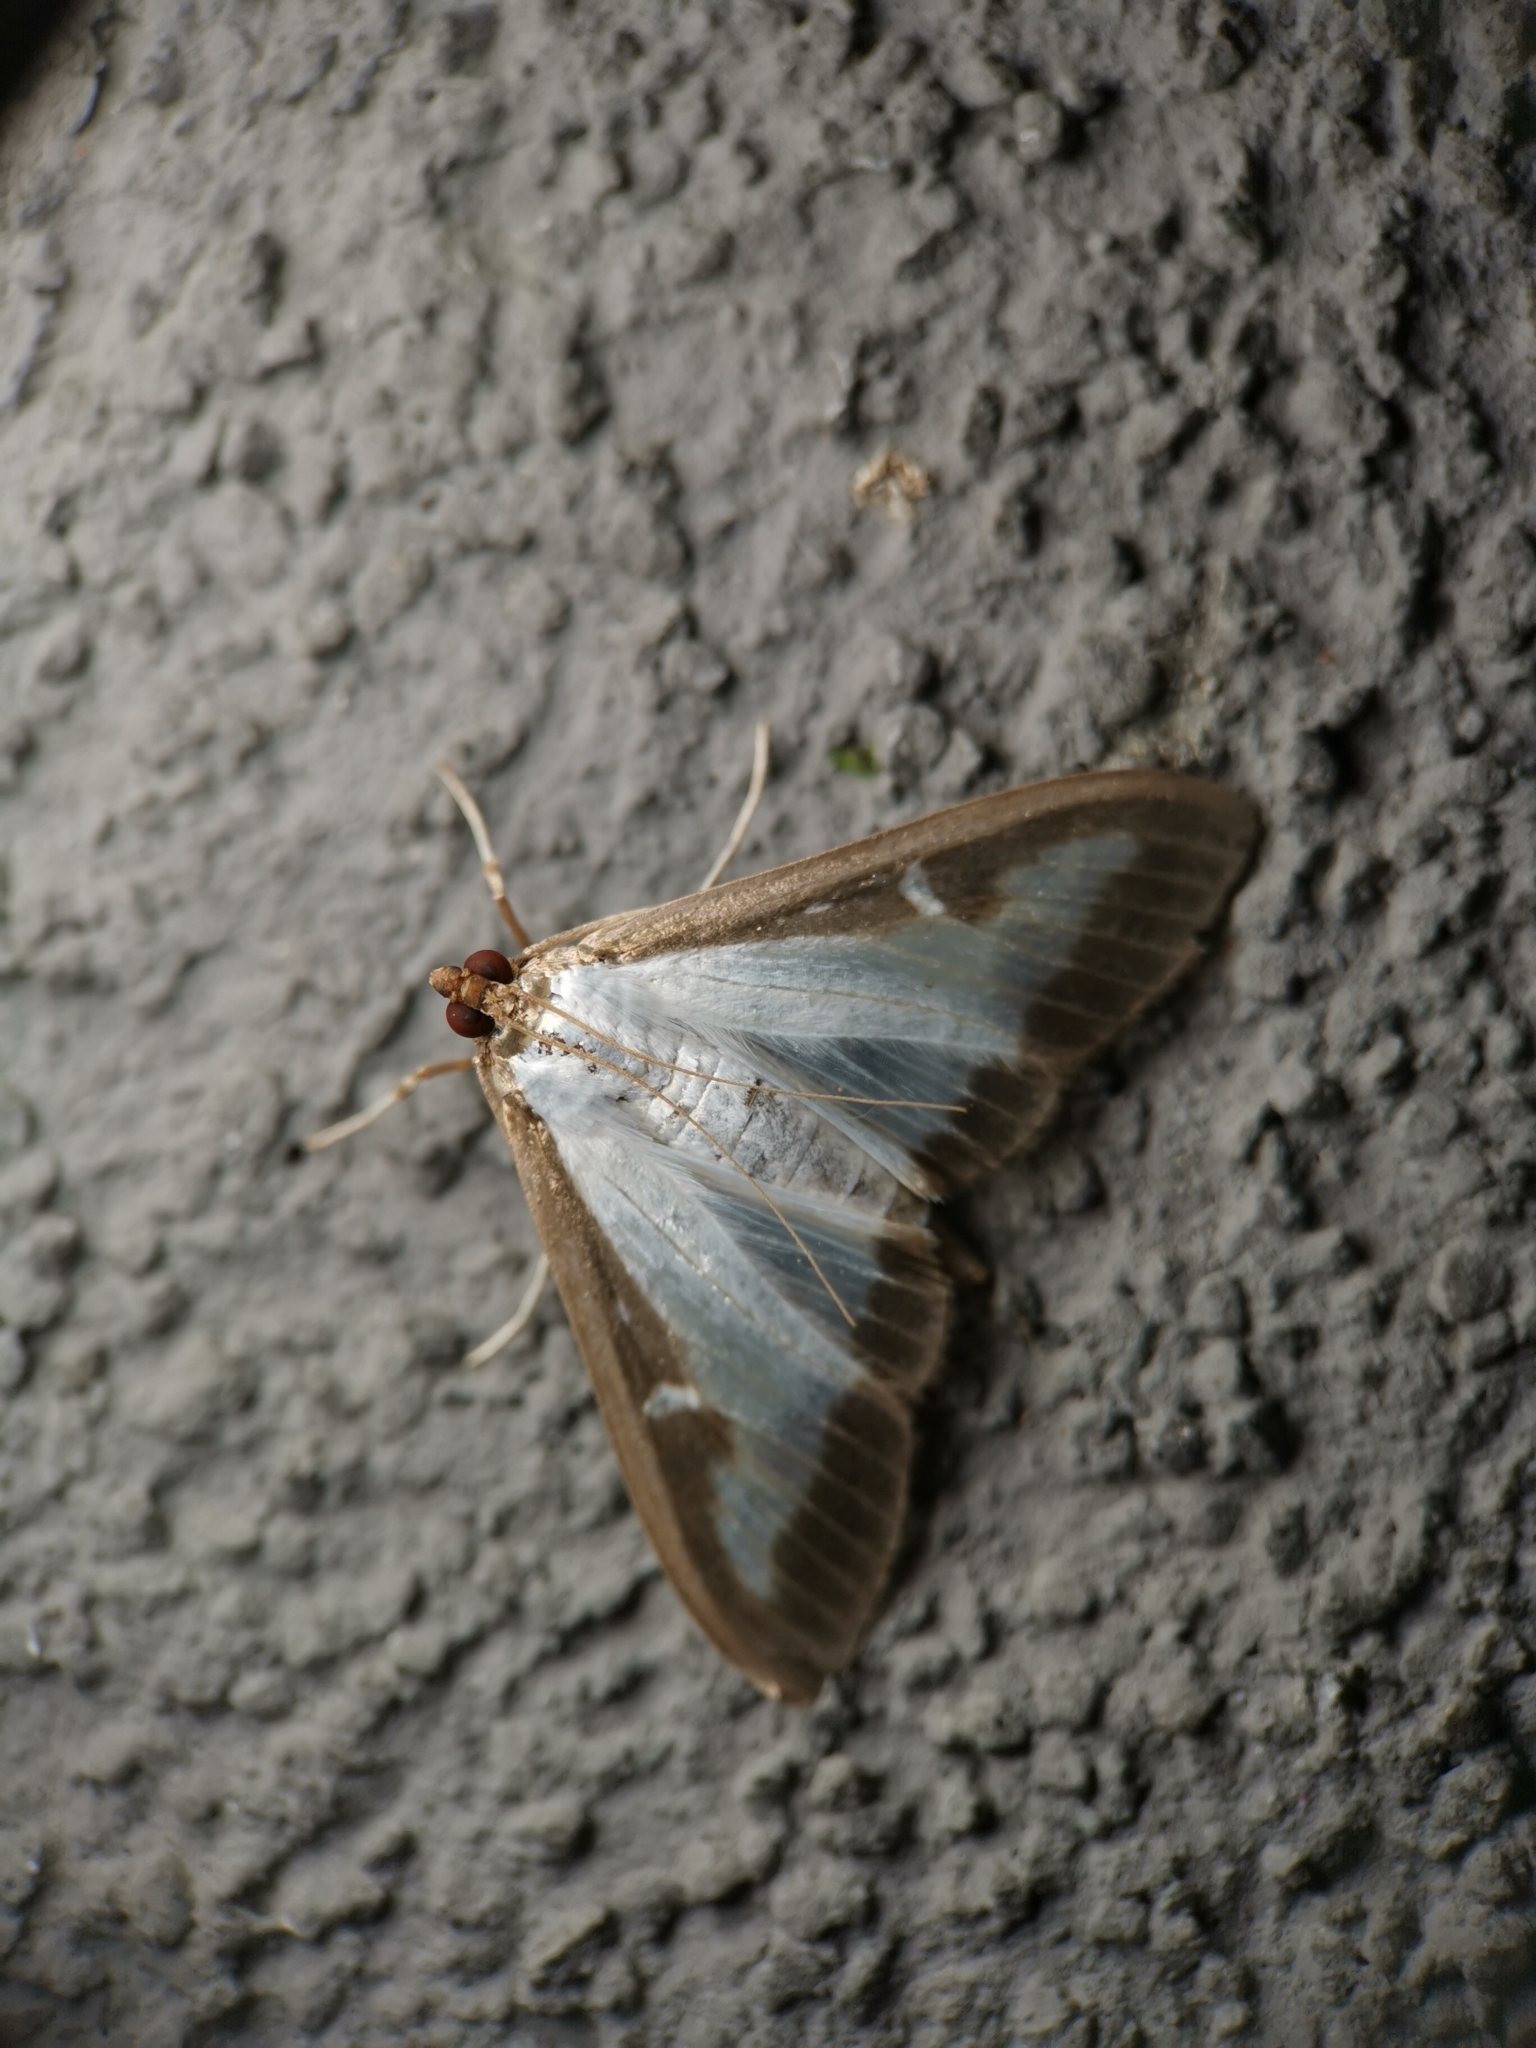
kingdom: Animalia
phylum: Arthropoda
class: Insecta
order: Lepidoptera
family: Crambidae
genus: Cydalima
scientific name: Cydalima perspectalis
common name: Box tree moth
